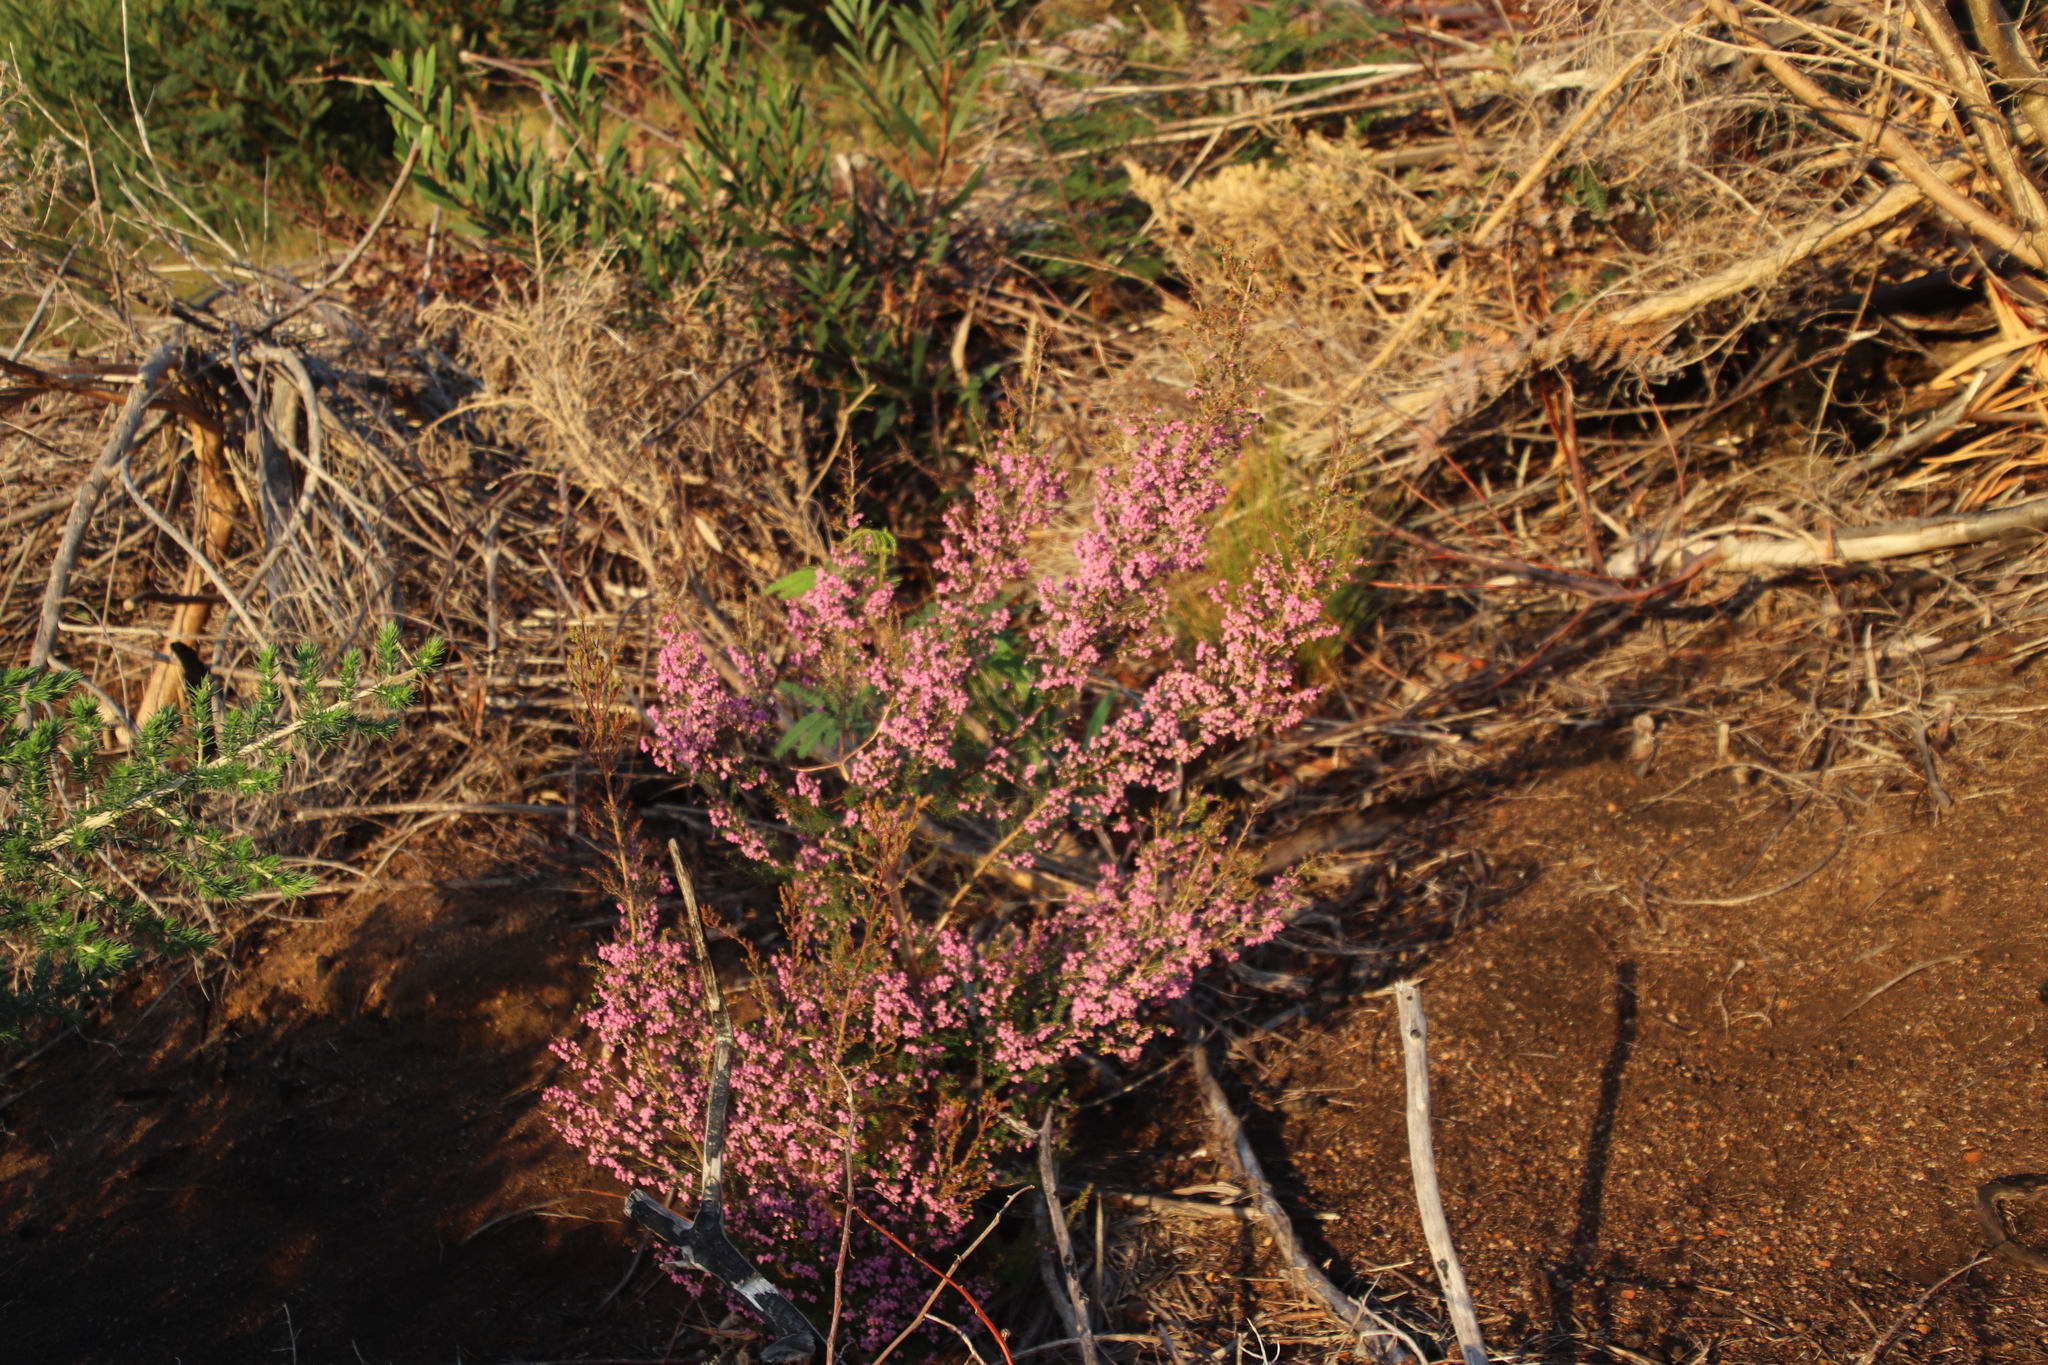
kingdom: Plantae
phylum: Tracheophyta
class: Magnoliopsida
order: Ericales
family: Ericaceae
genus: Erica
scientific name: Erica hirtiflora
